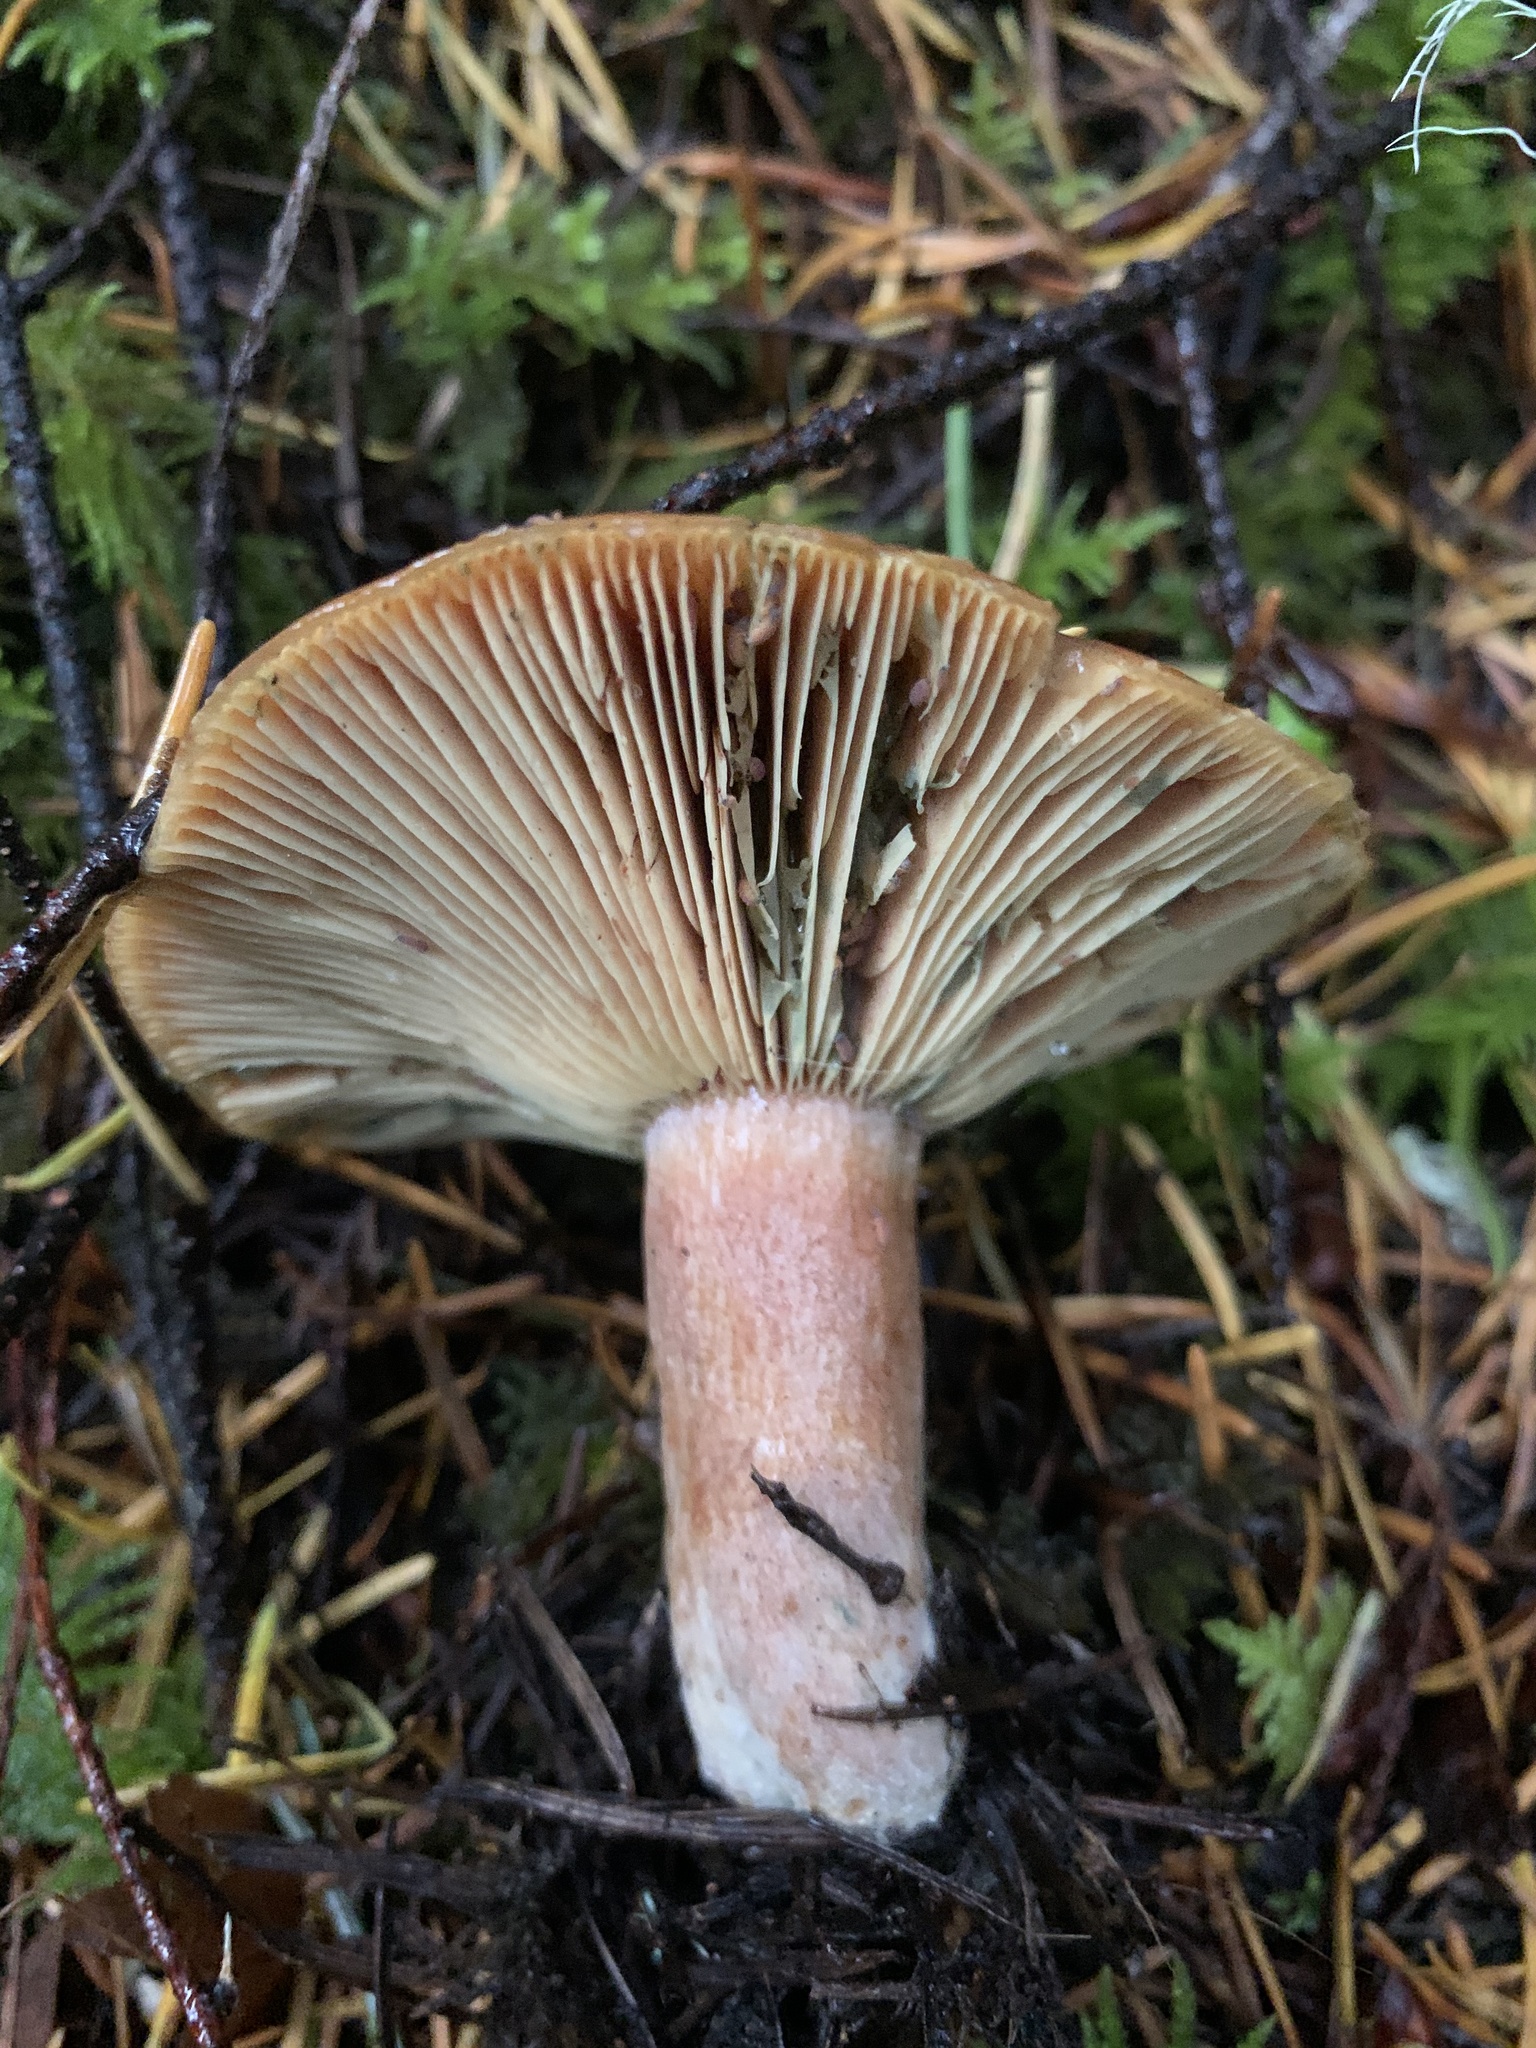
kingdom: Fungi
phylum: Basidiomycota
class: Agaricomycetes
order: Russulales
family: Russulaceae
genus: Lactarius
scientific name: Lactarius rubrilacteus
